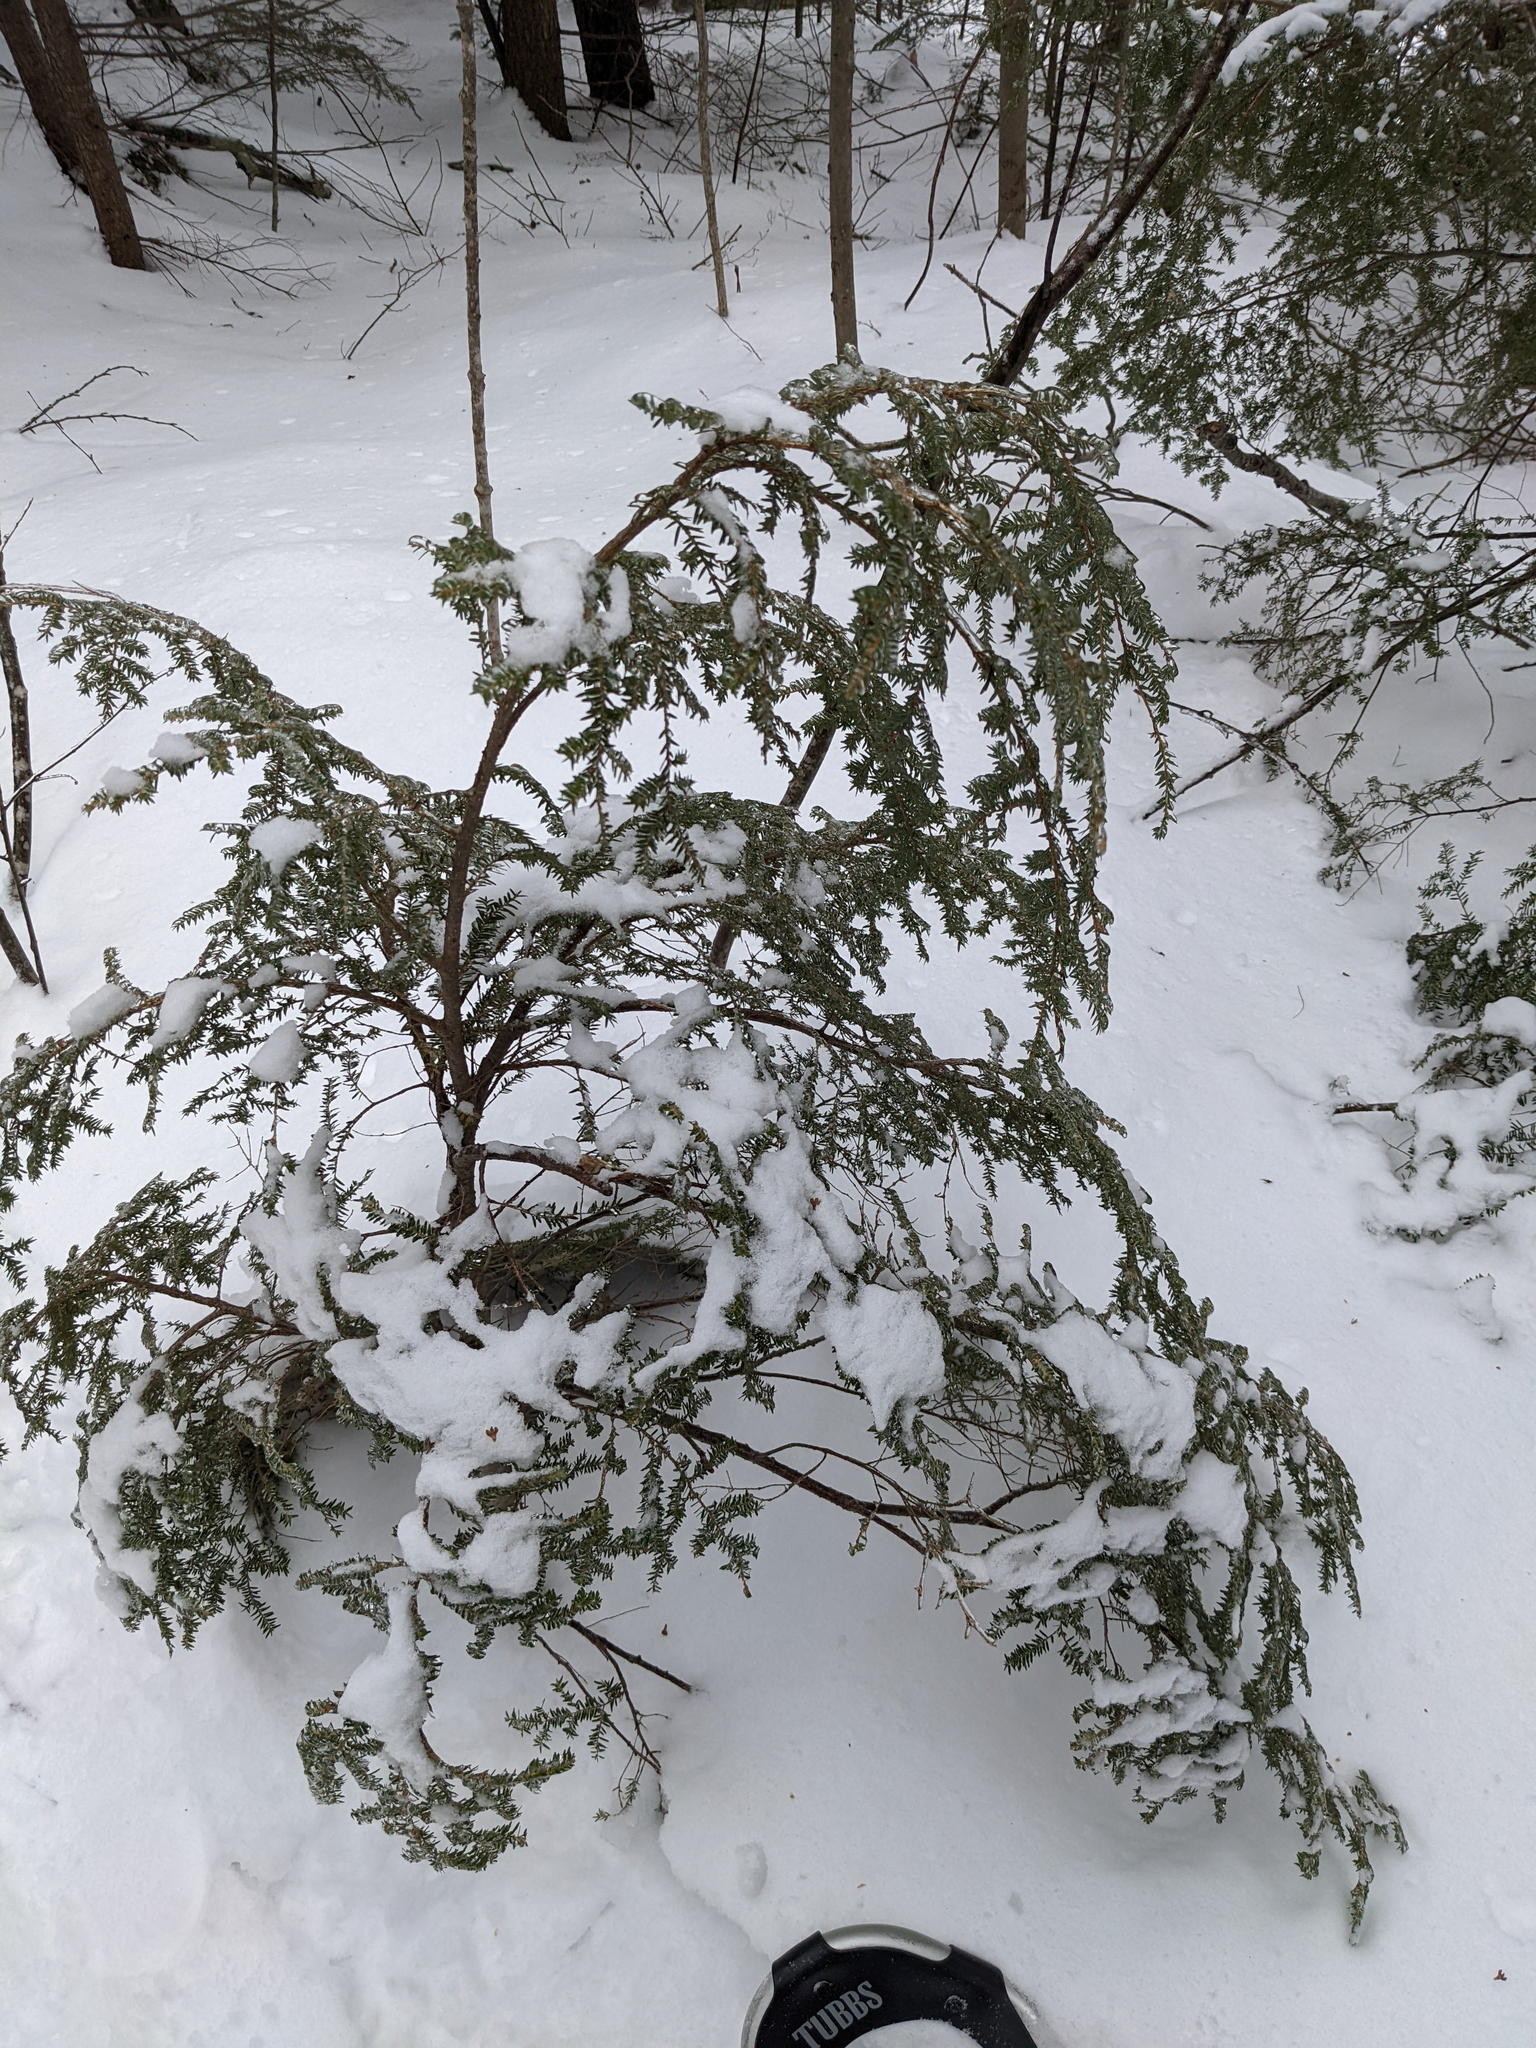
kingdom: Plantae
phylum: Tracheophyta
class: Pinopsida
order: Pinales
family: Pinaceae
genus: Tsuga
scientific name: Tsuga canadensis
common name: Eastern hemlock
